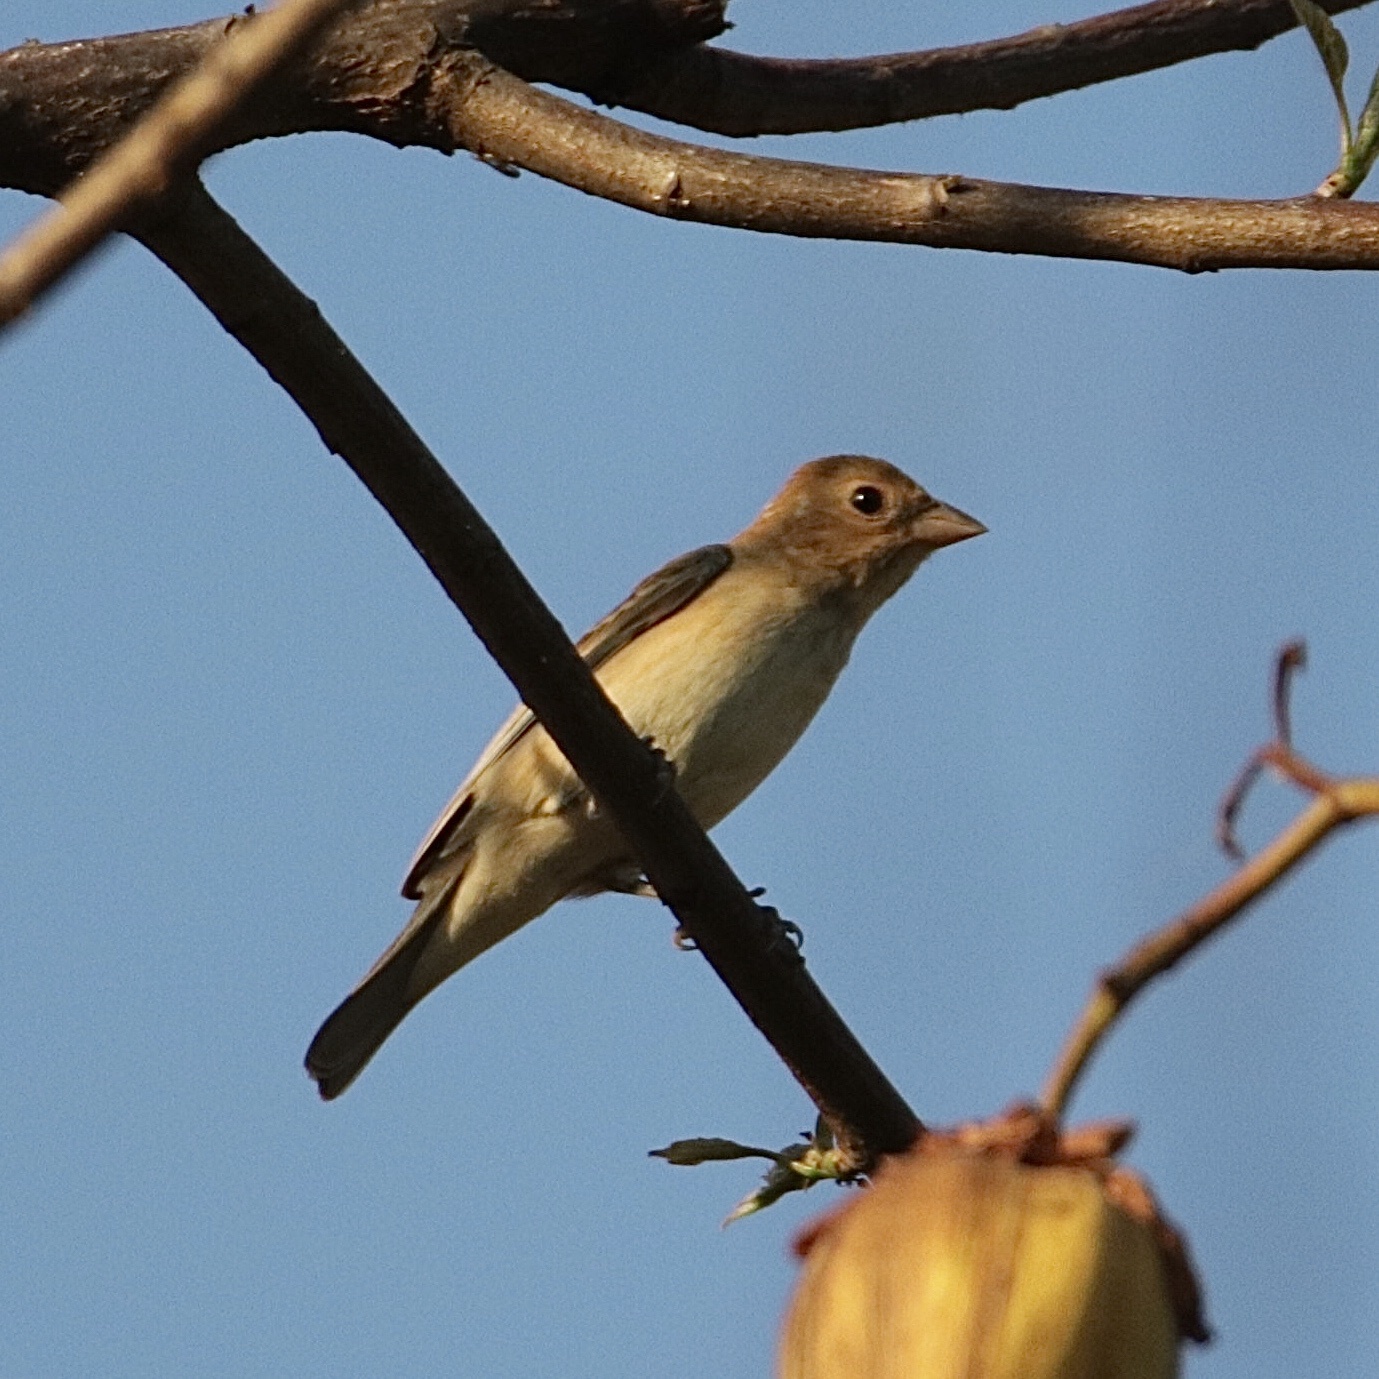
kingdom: Animalia
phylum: Chordata
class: Aves
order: Passeriformes
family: Cardinalidae
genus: Passerina
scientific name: Passerina cyanea
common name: Indigo bunting
